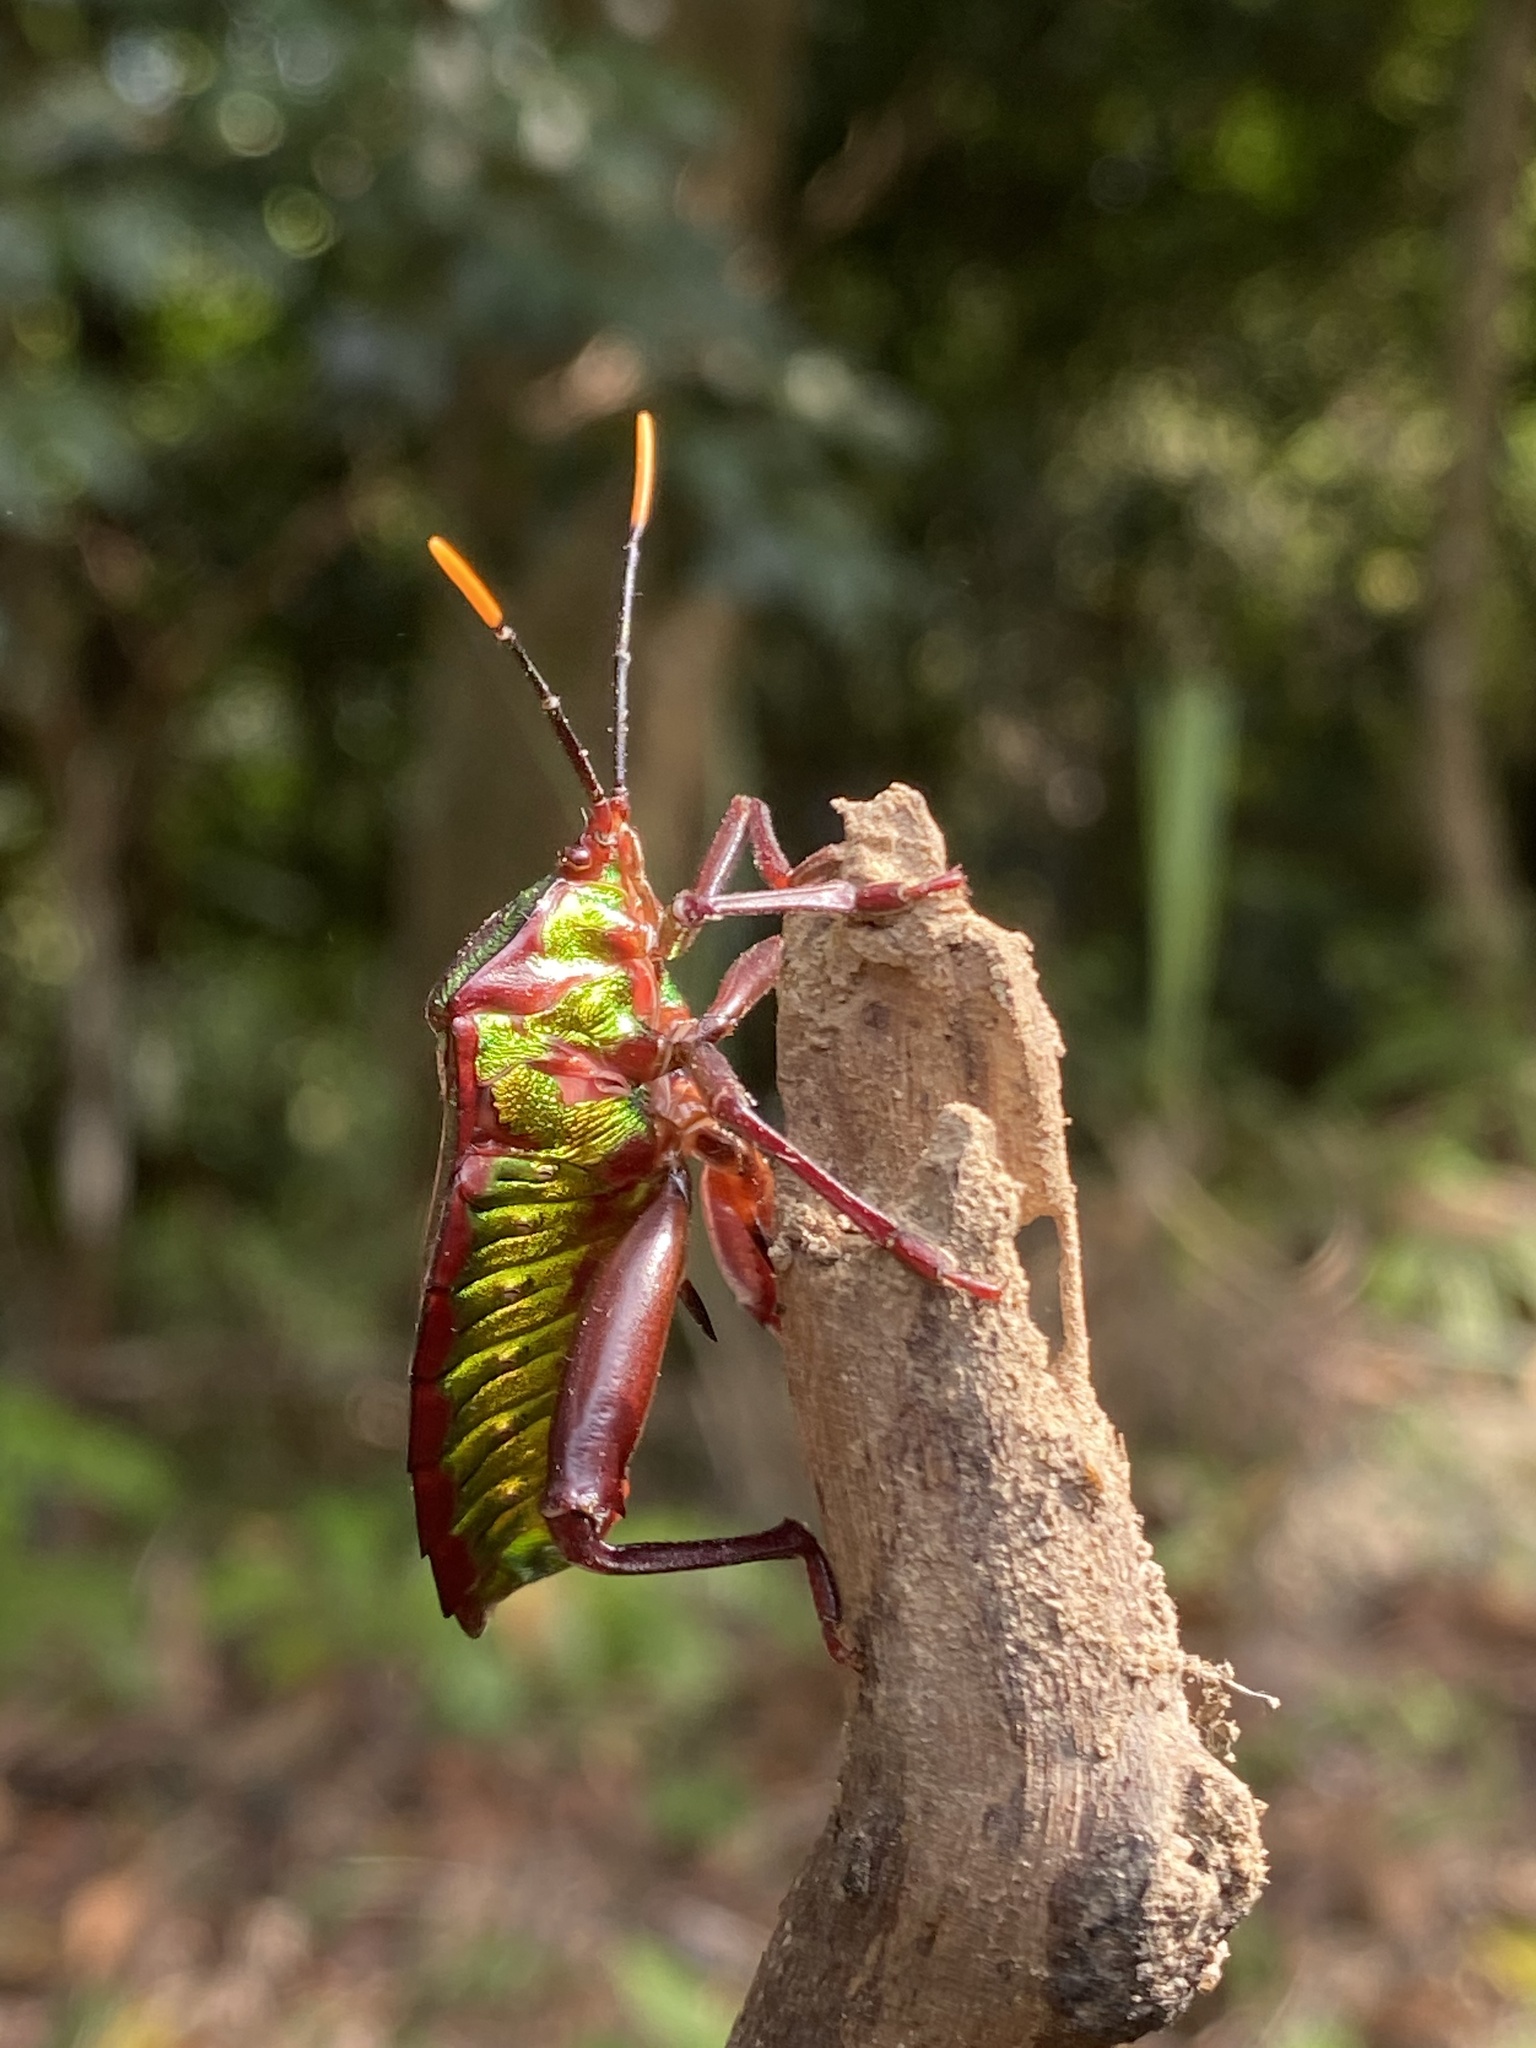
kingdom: Animalia
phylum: Arthropoda
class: Insecta
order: Hemiptera
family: Tessaratomidae
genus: Eurostus
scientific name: Eurostus validus
